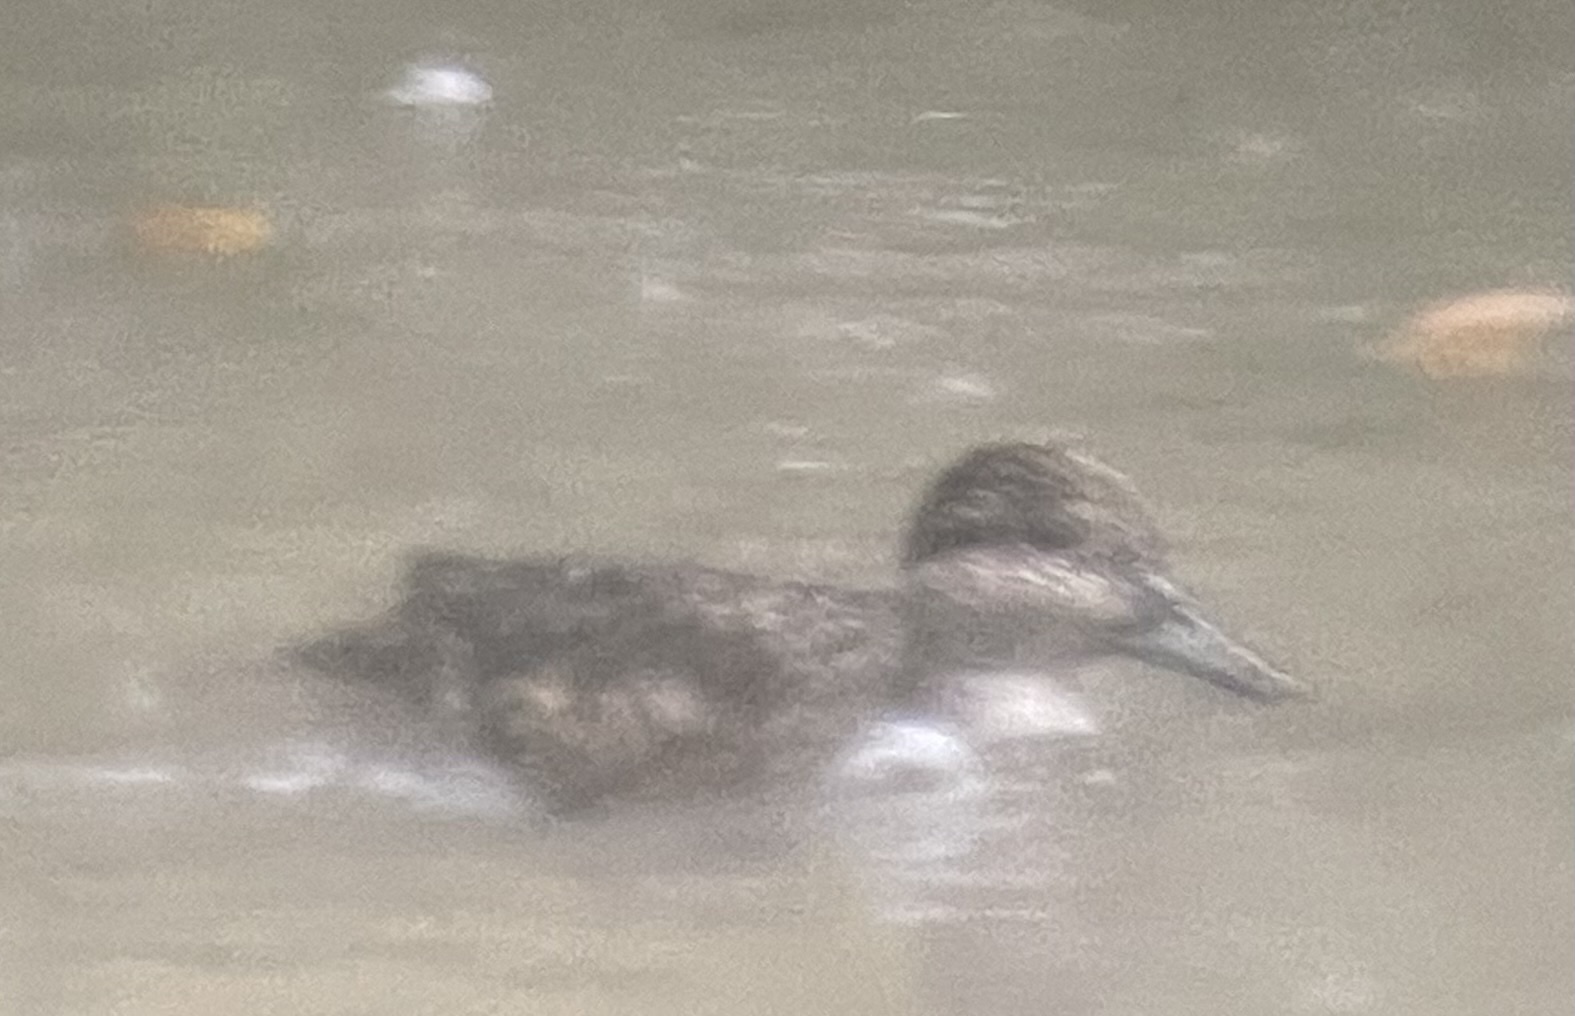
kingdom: Animalia
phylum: Chordata
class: Aves
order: Anseriformes
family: Anatidae
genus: Anas
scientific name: Anas crecca
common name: Eurasian teal
